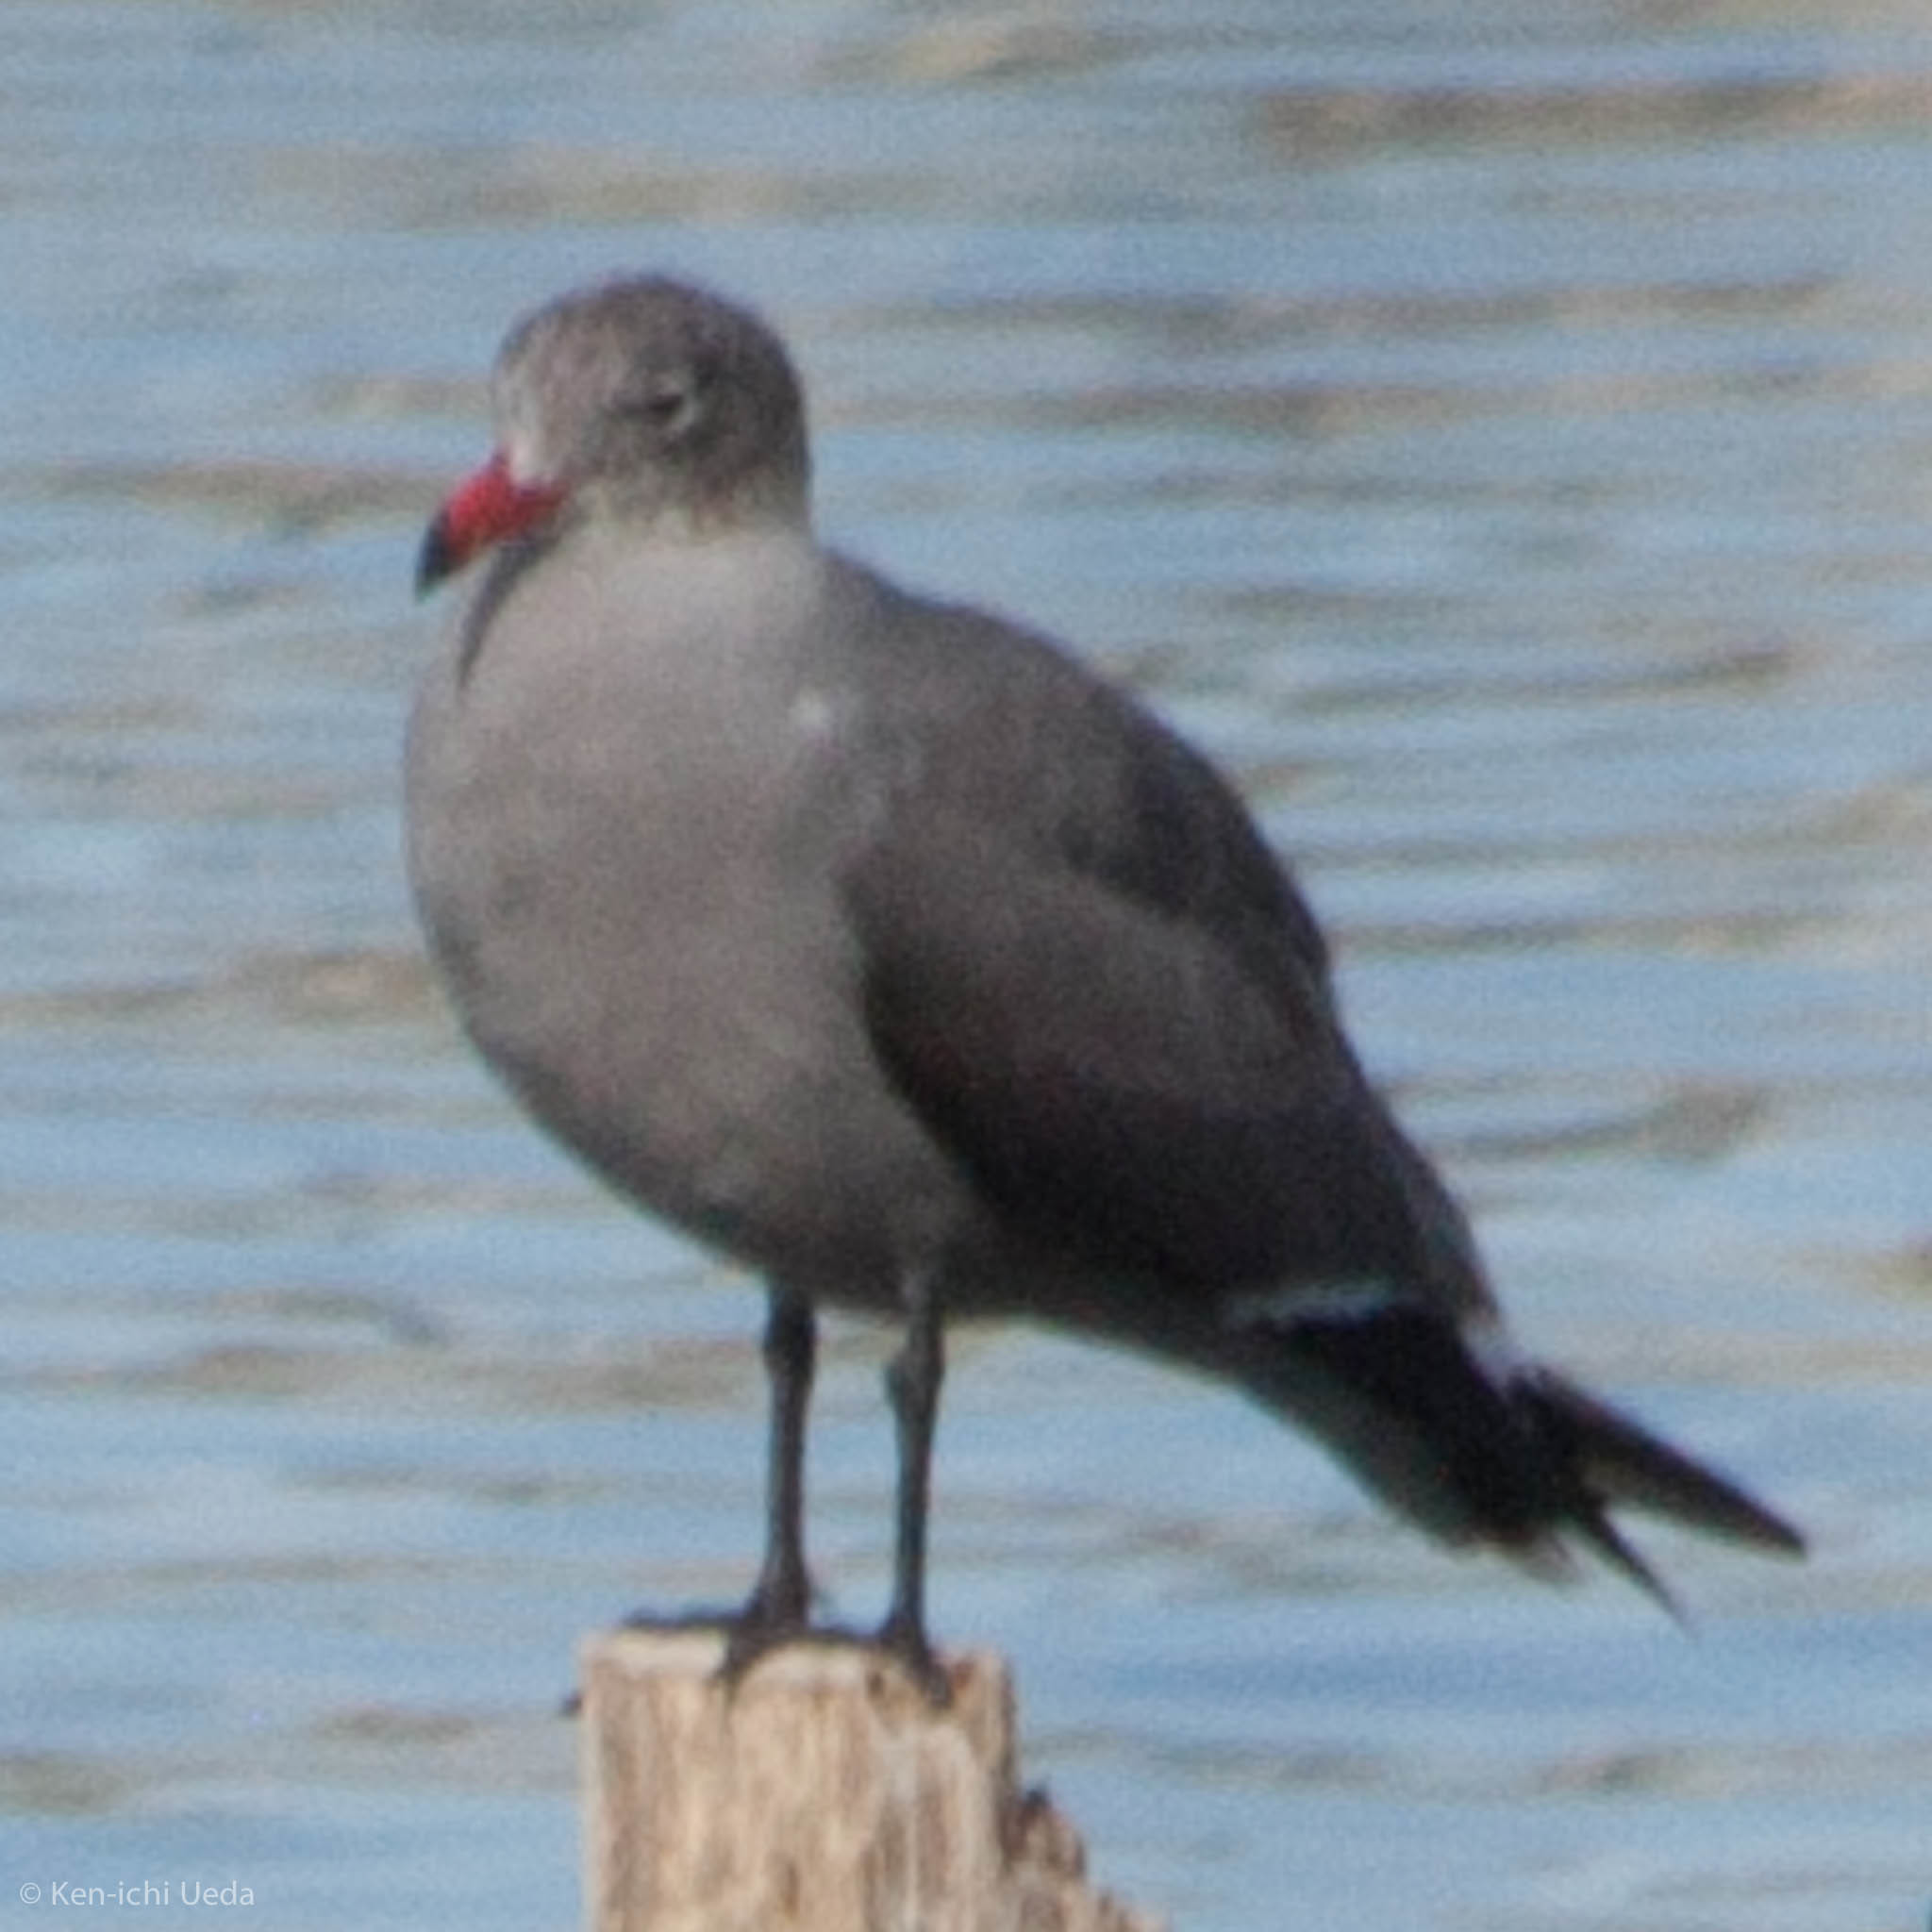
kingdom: Animalia
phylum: Chordata
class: Aves
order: Charadriiformes
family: Laridae
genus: Larus
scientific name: Larus heermanni
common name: Heermann's gull
